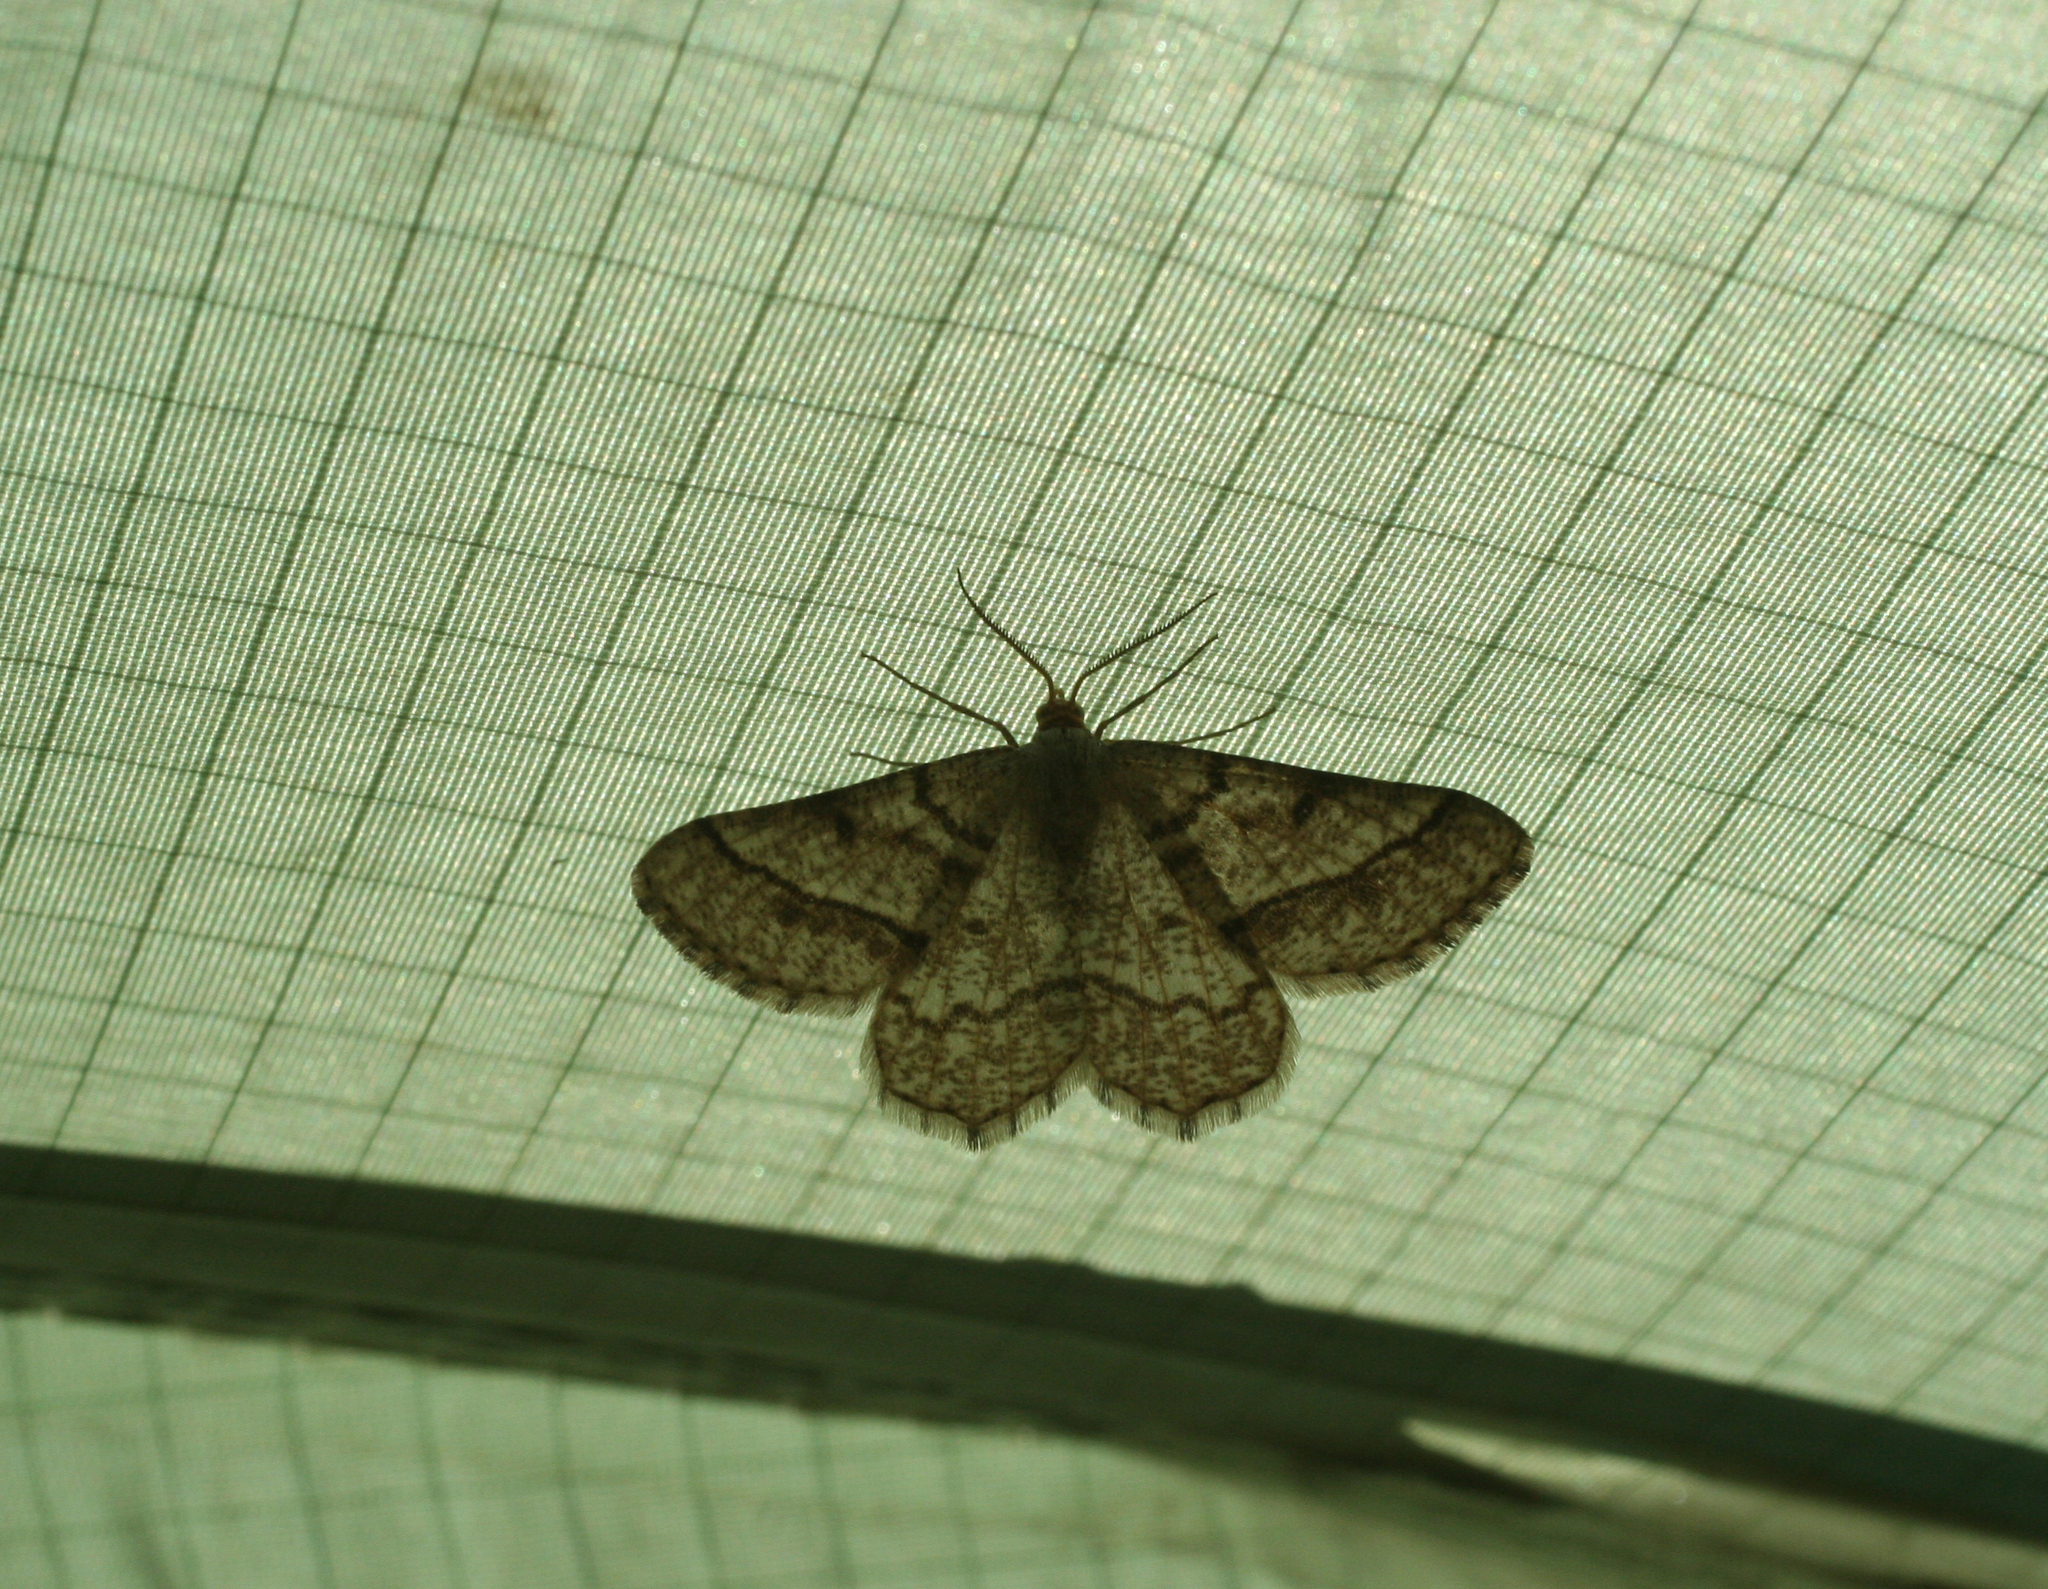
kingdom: Animalia
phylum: Arthropoda
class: Insecta
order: Lepidoptera
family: Geometridae
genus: Tephrina
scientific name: Tephrina murinaria
